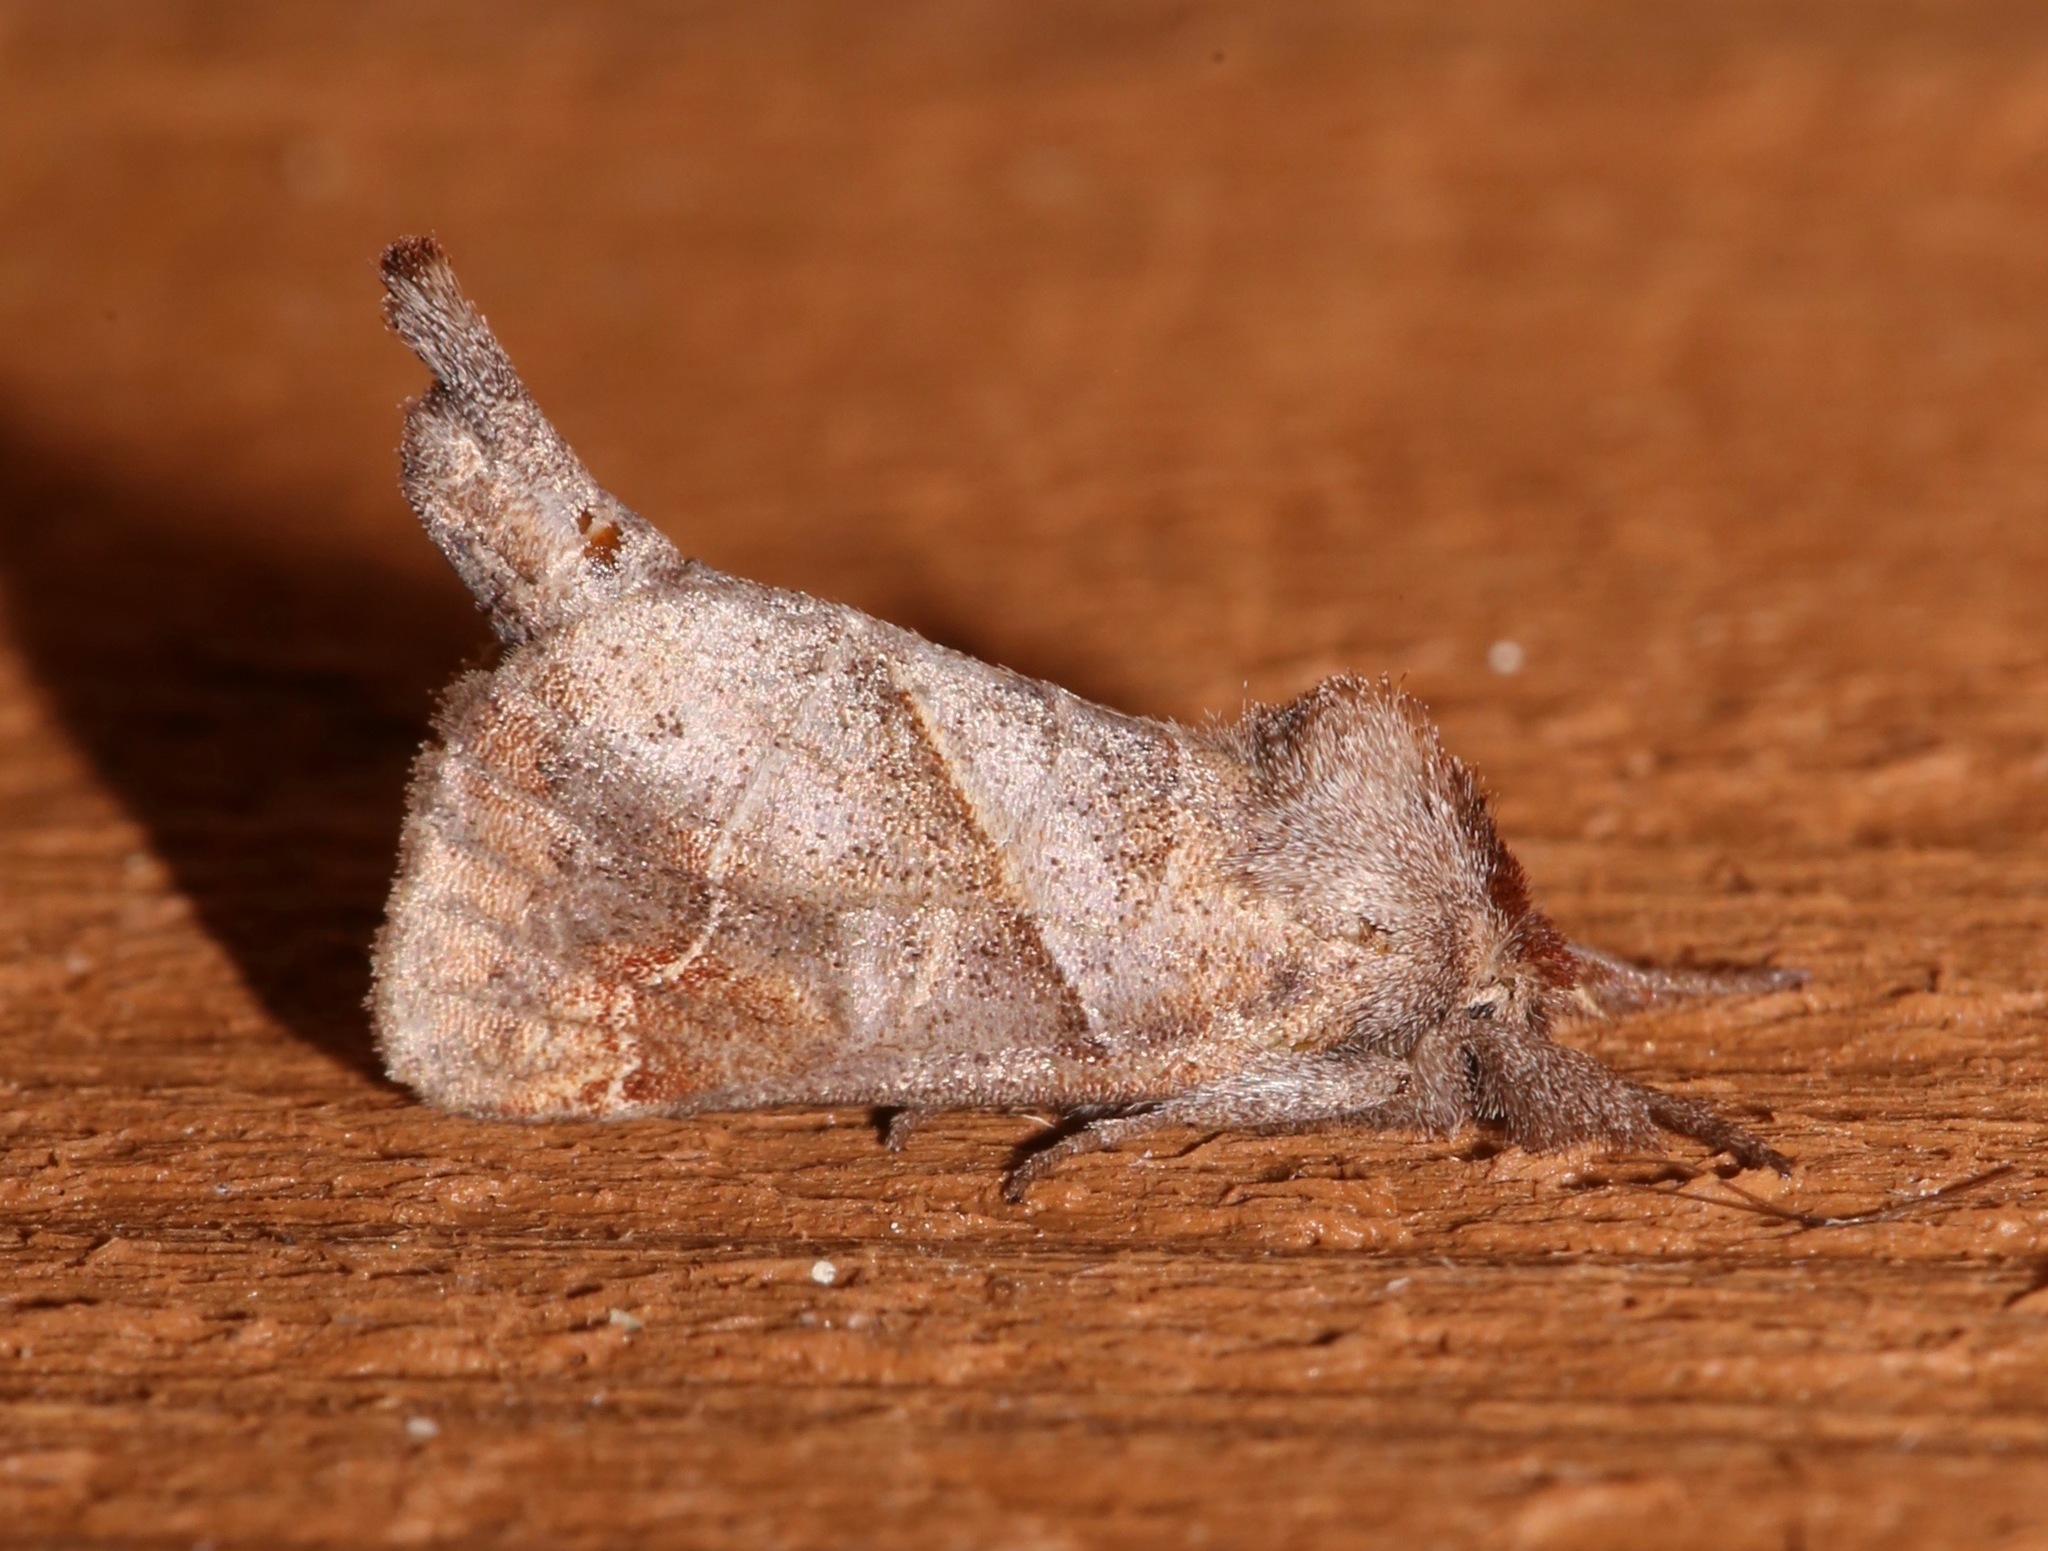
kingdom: Animalia
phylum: Arthropoda
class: Insecta
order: Lepidoptera
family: Notodontidae
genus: Clostera
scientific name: Clostera inclusa
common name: Angle-lined prominent
